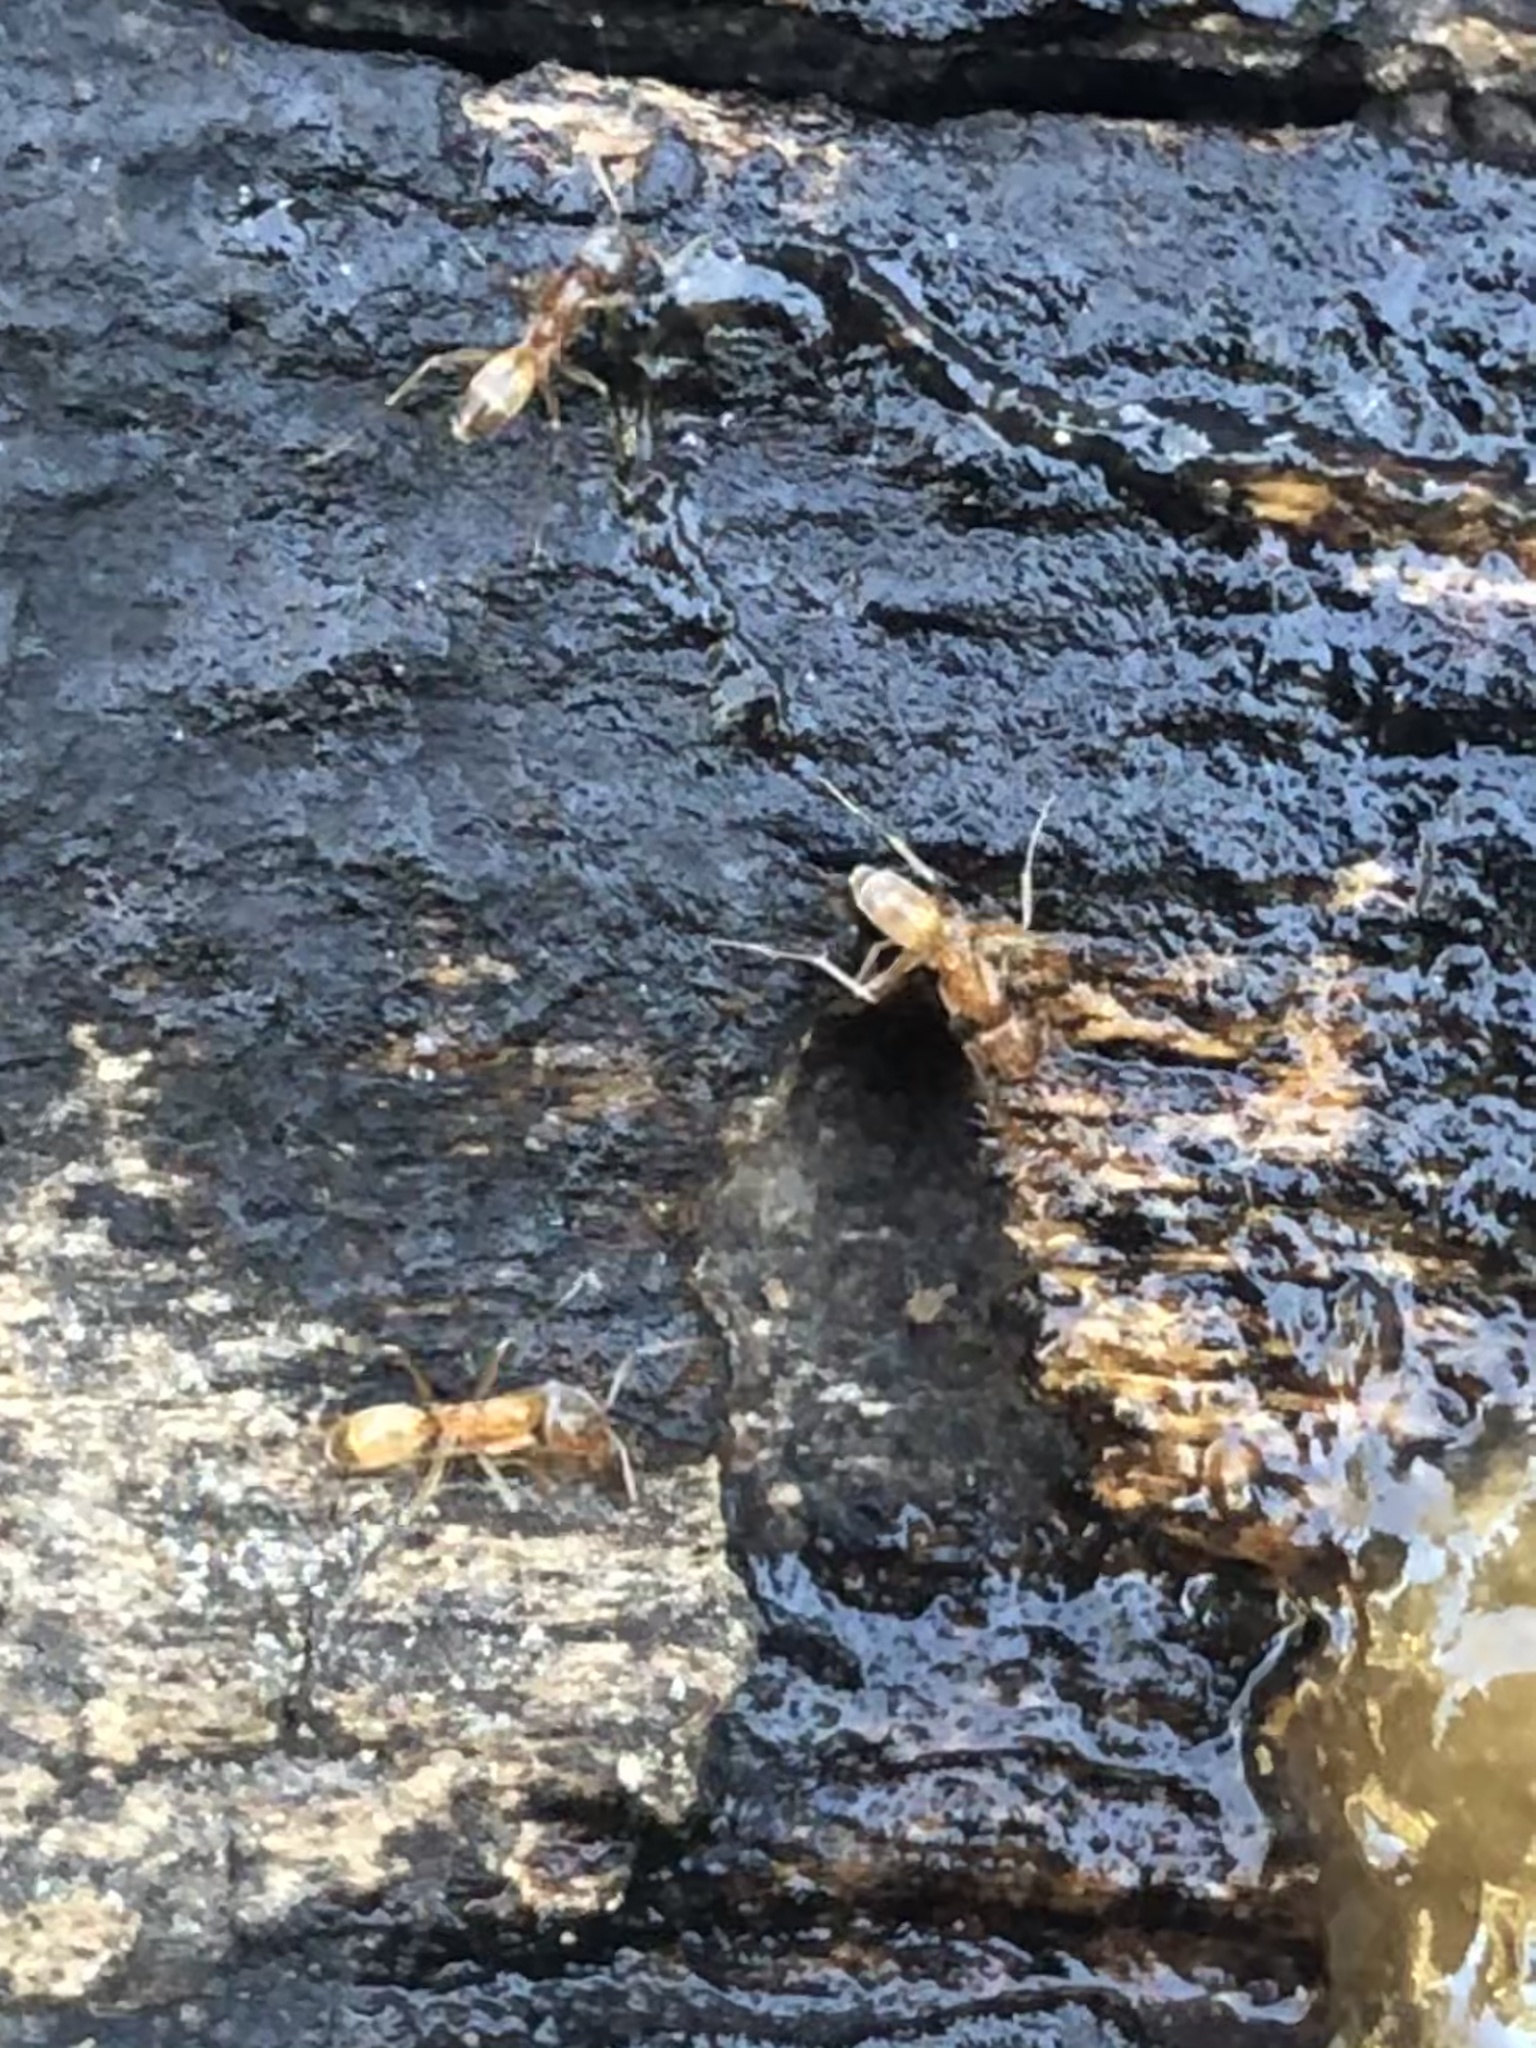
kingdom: Animalia
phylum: Arthropoda
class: Insecta
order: Hymenoptera
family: Formicidae
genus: Dorymyrmex
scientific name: Dorymyrmex flavus
